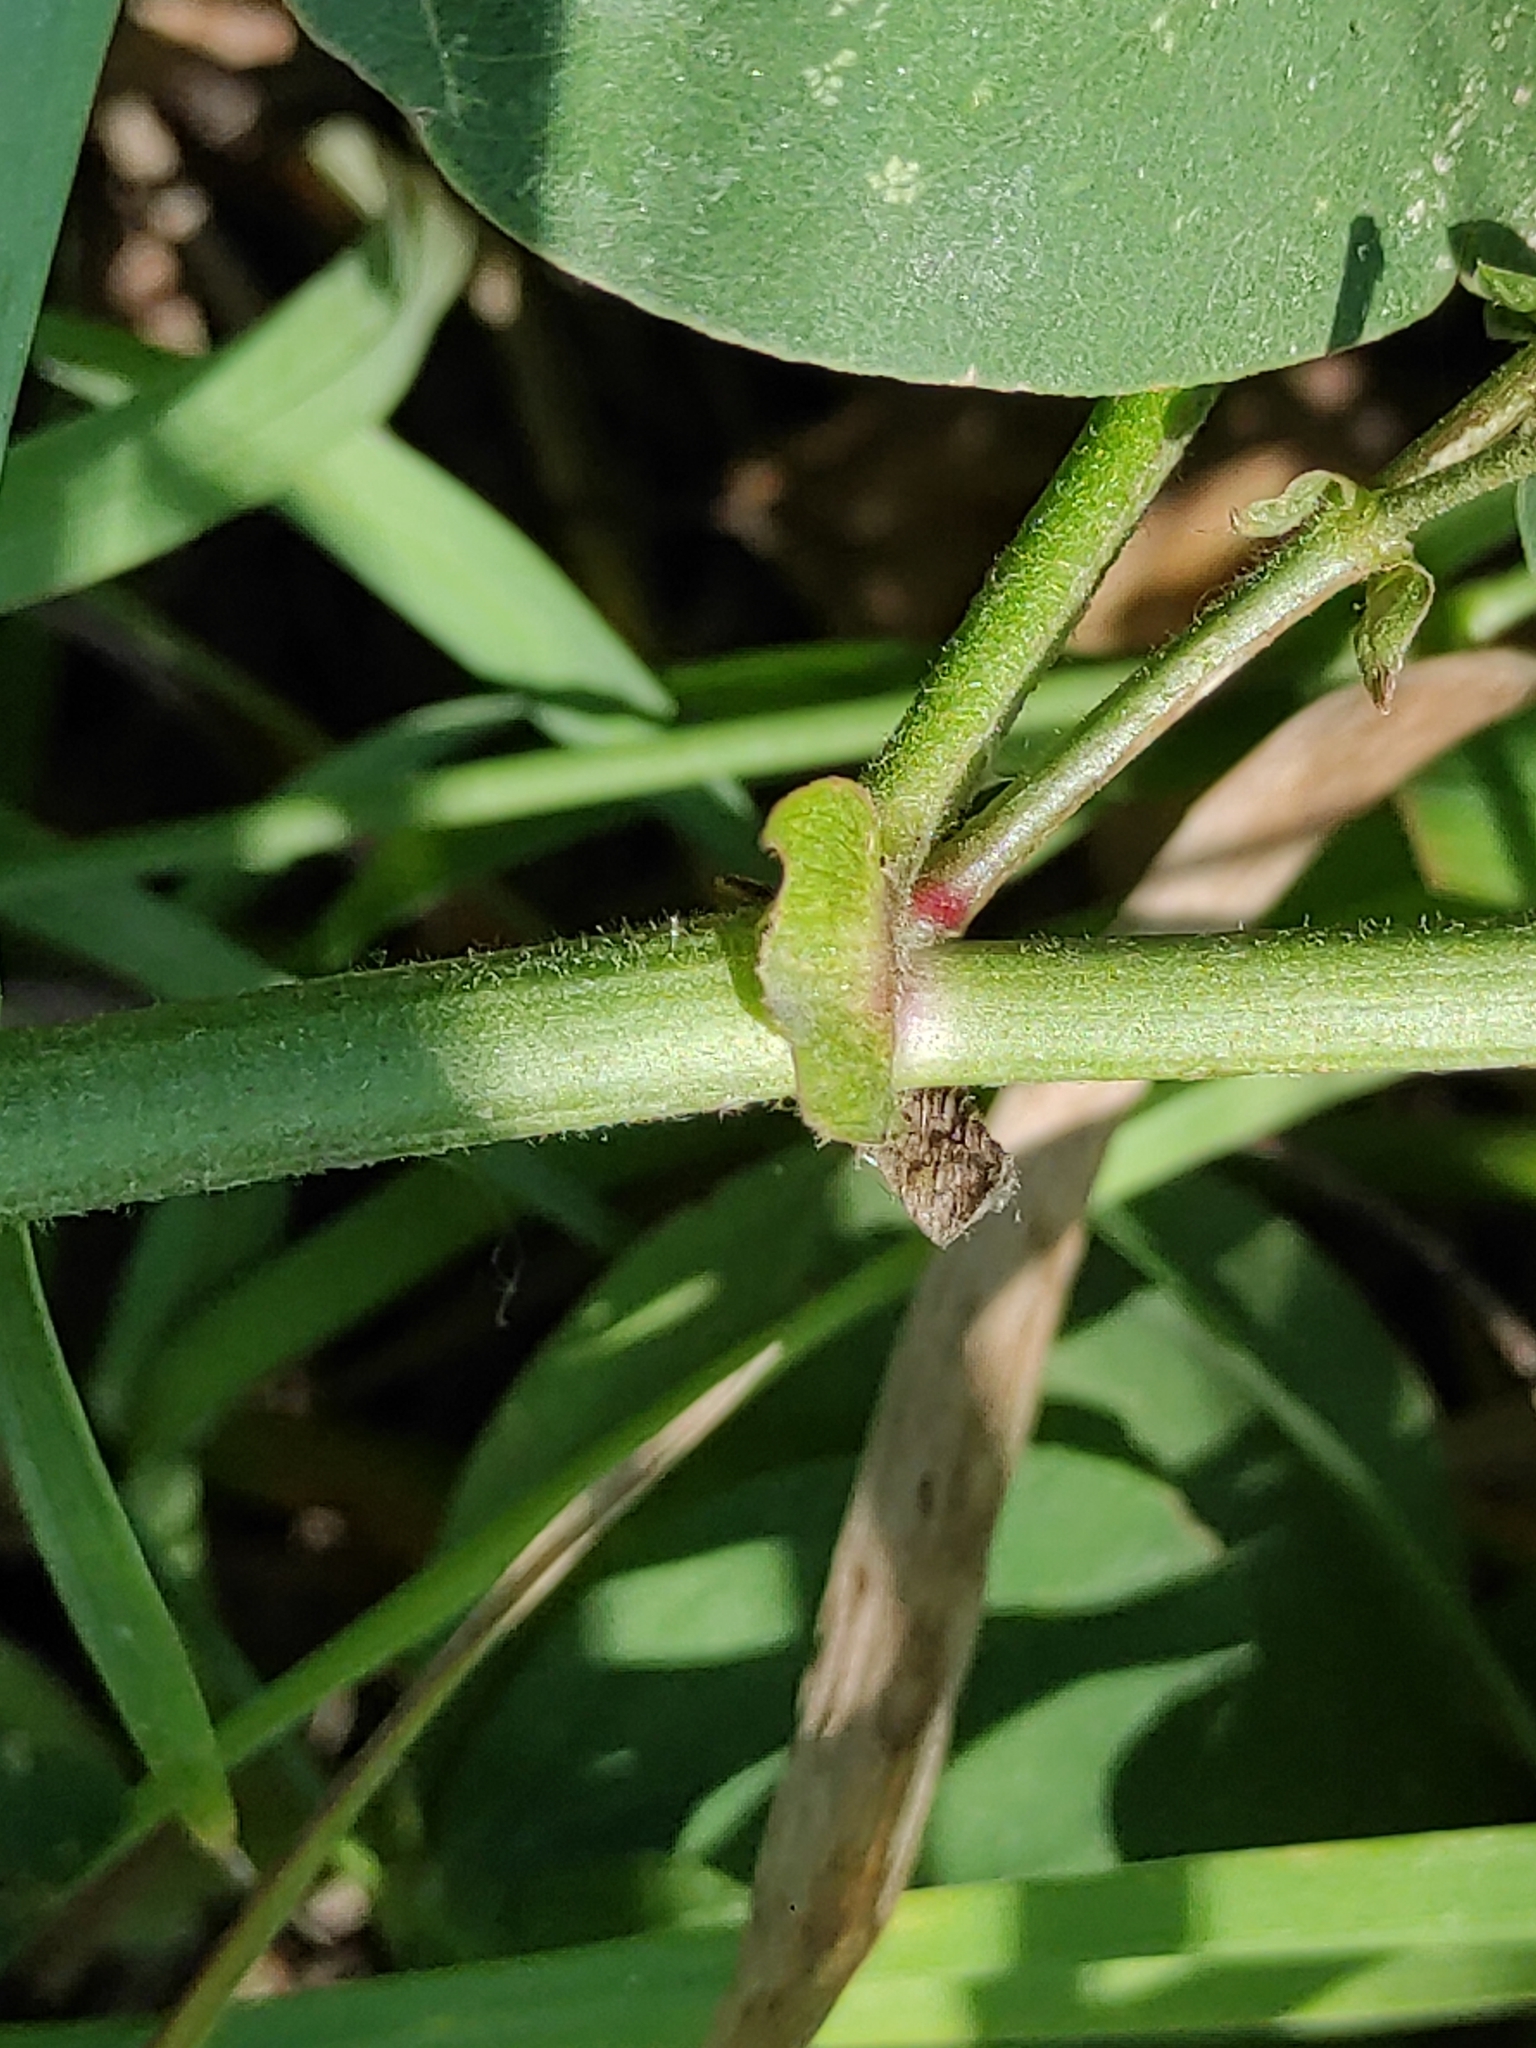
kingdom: Plantae
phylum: Tracheophyta
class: Magnoliopsida
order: Fabales
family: Fabaceae
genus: Galega
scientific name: Galega orientalis
